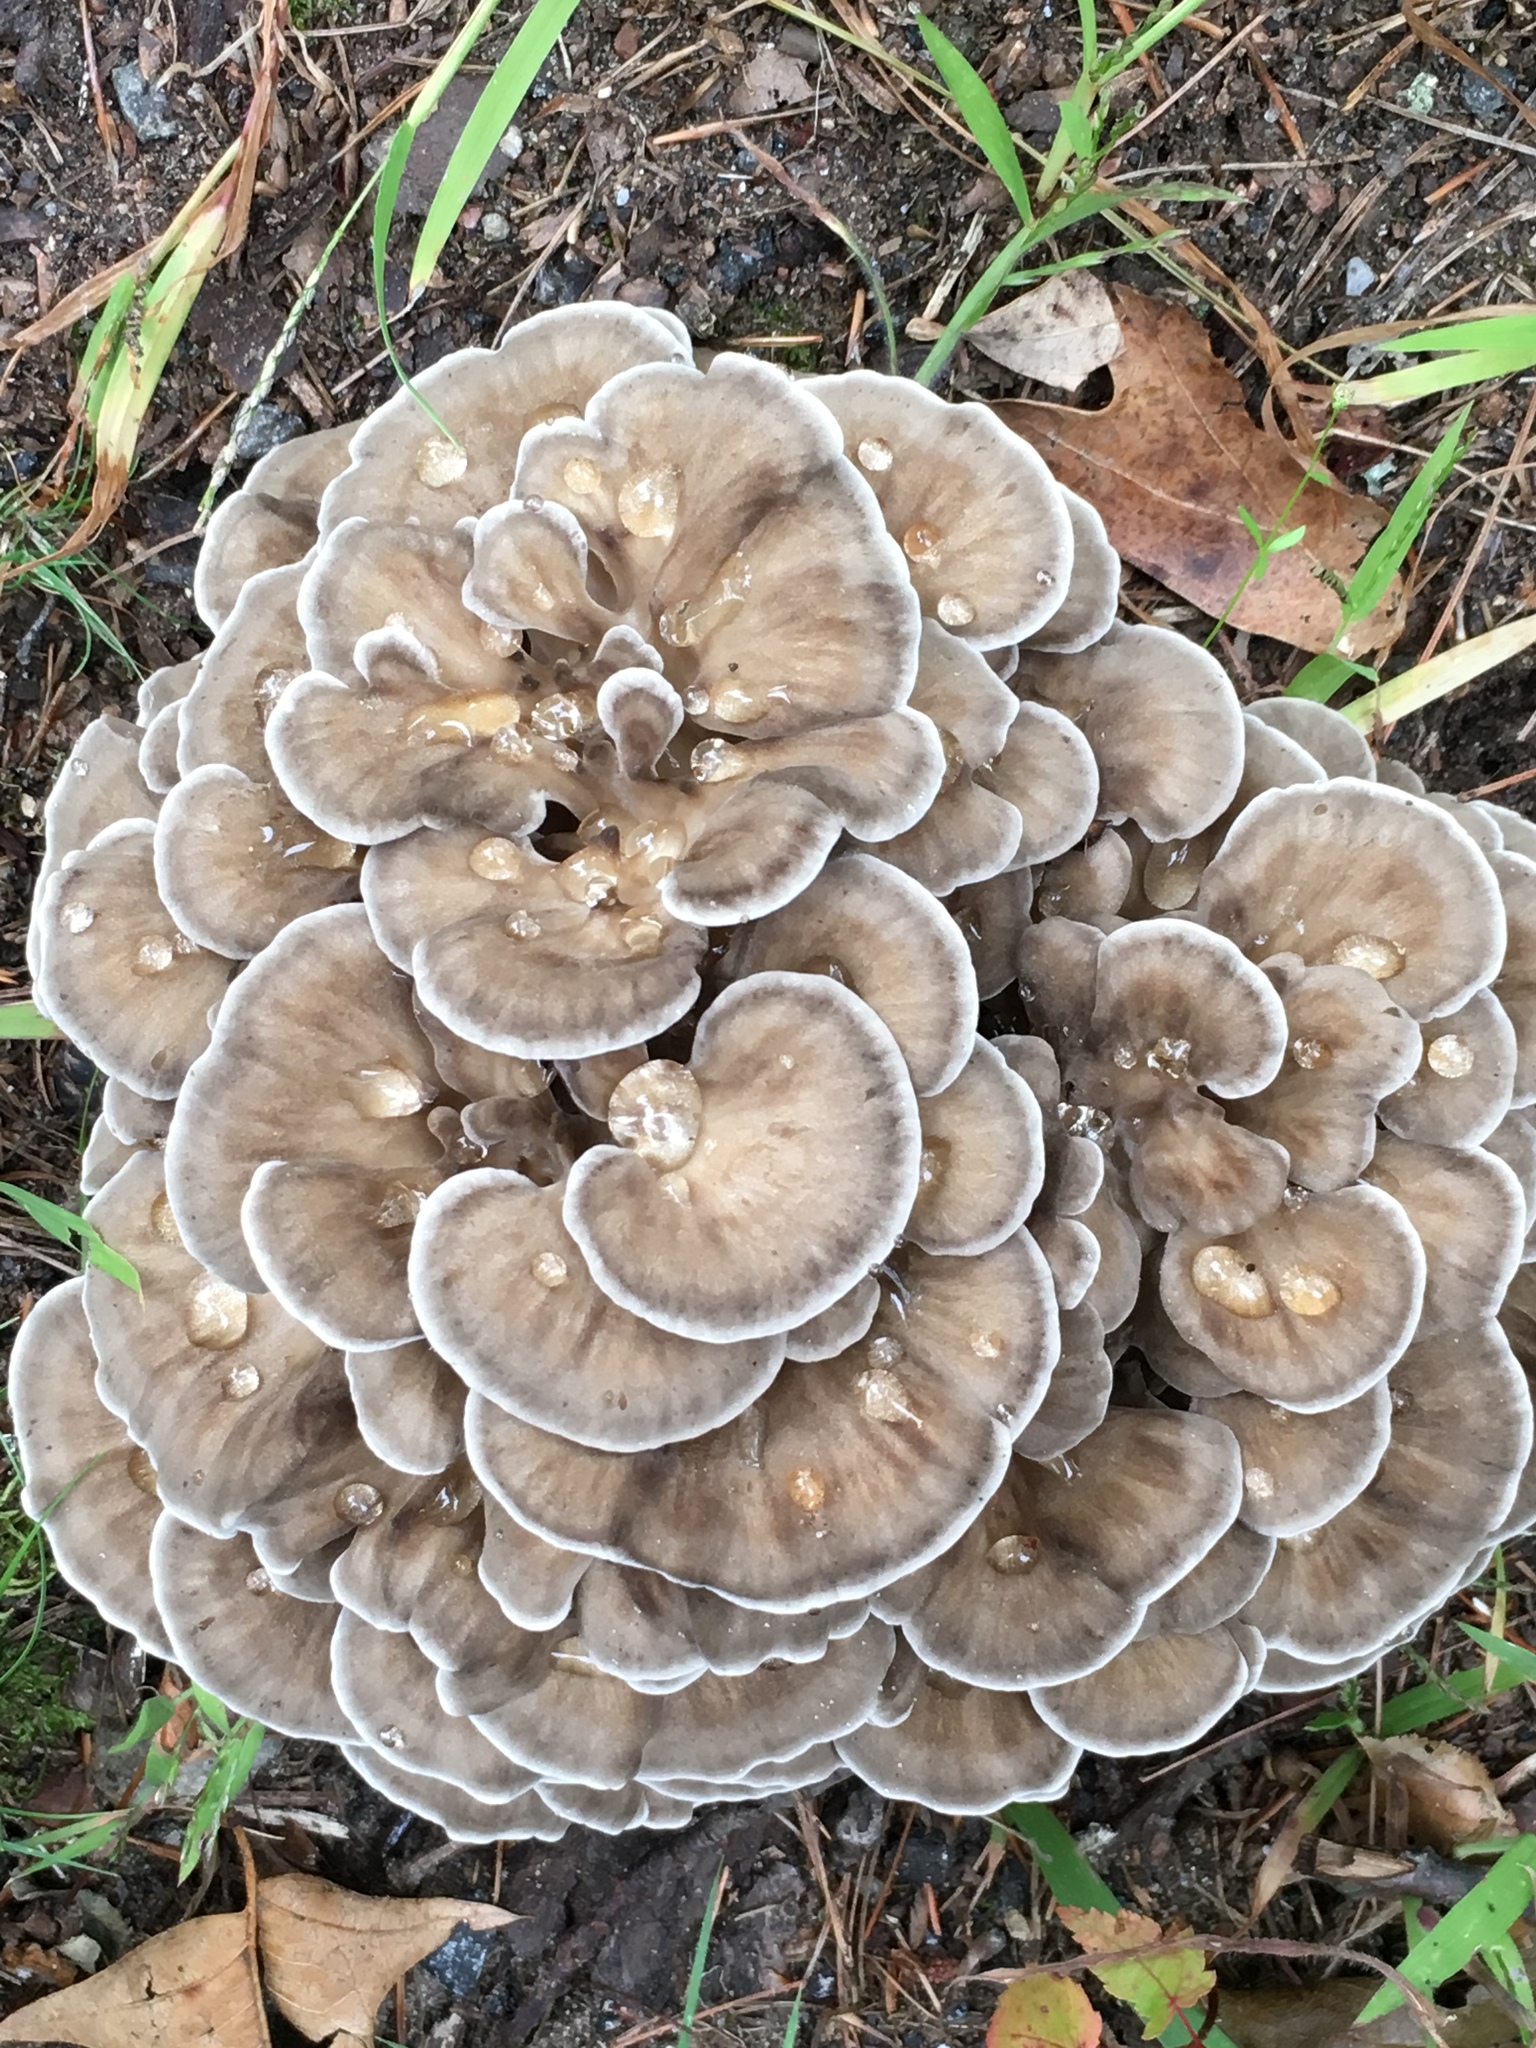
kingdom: Fungi
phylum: Basidiomycota
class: Agaricomycetes
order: Polyporales
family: Grifolaceae
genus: Grifola
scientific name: Grifola frondosa
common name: Hen of the woods
